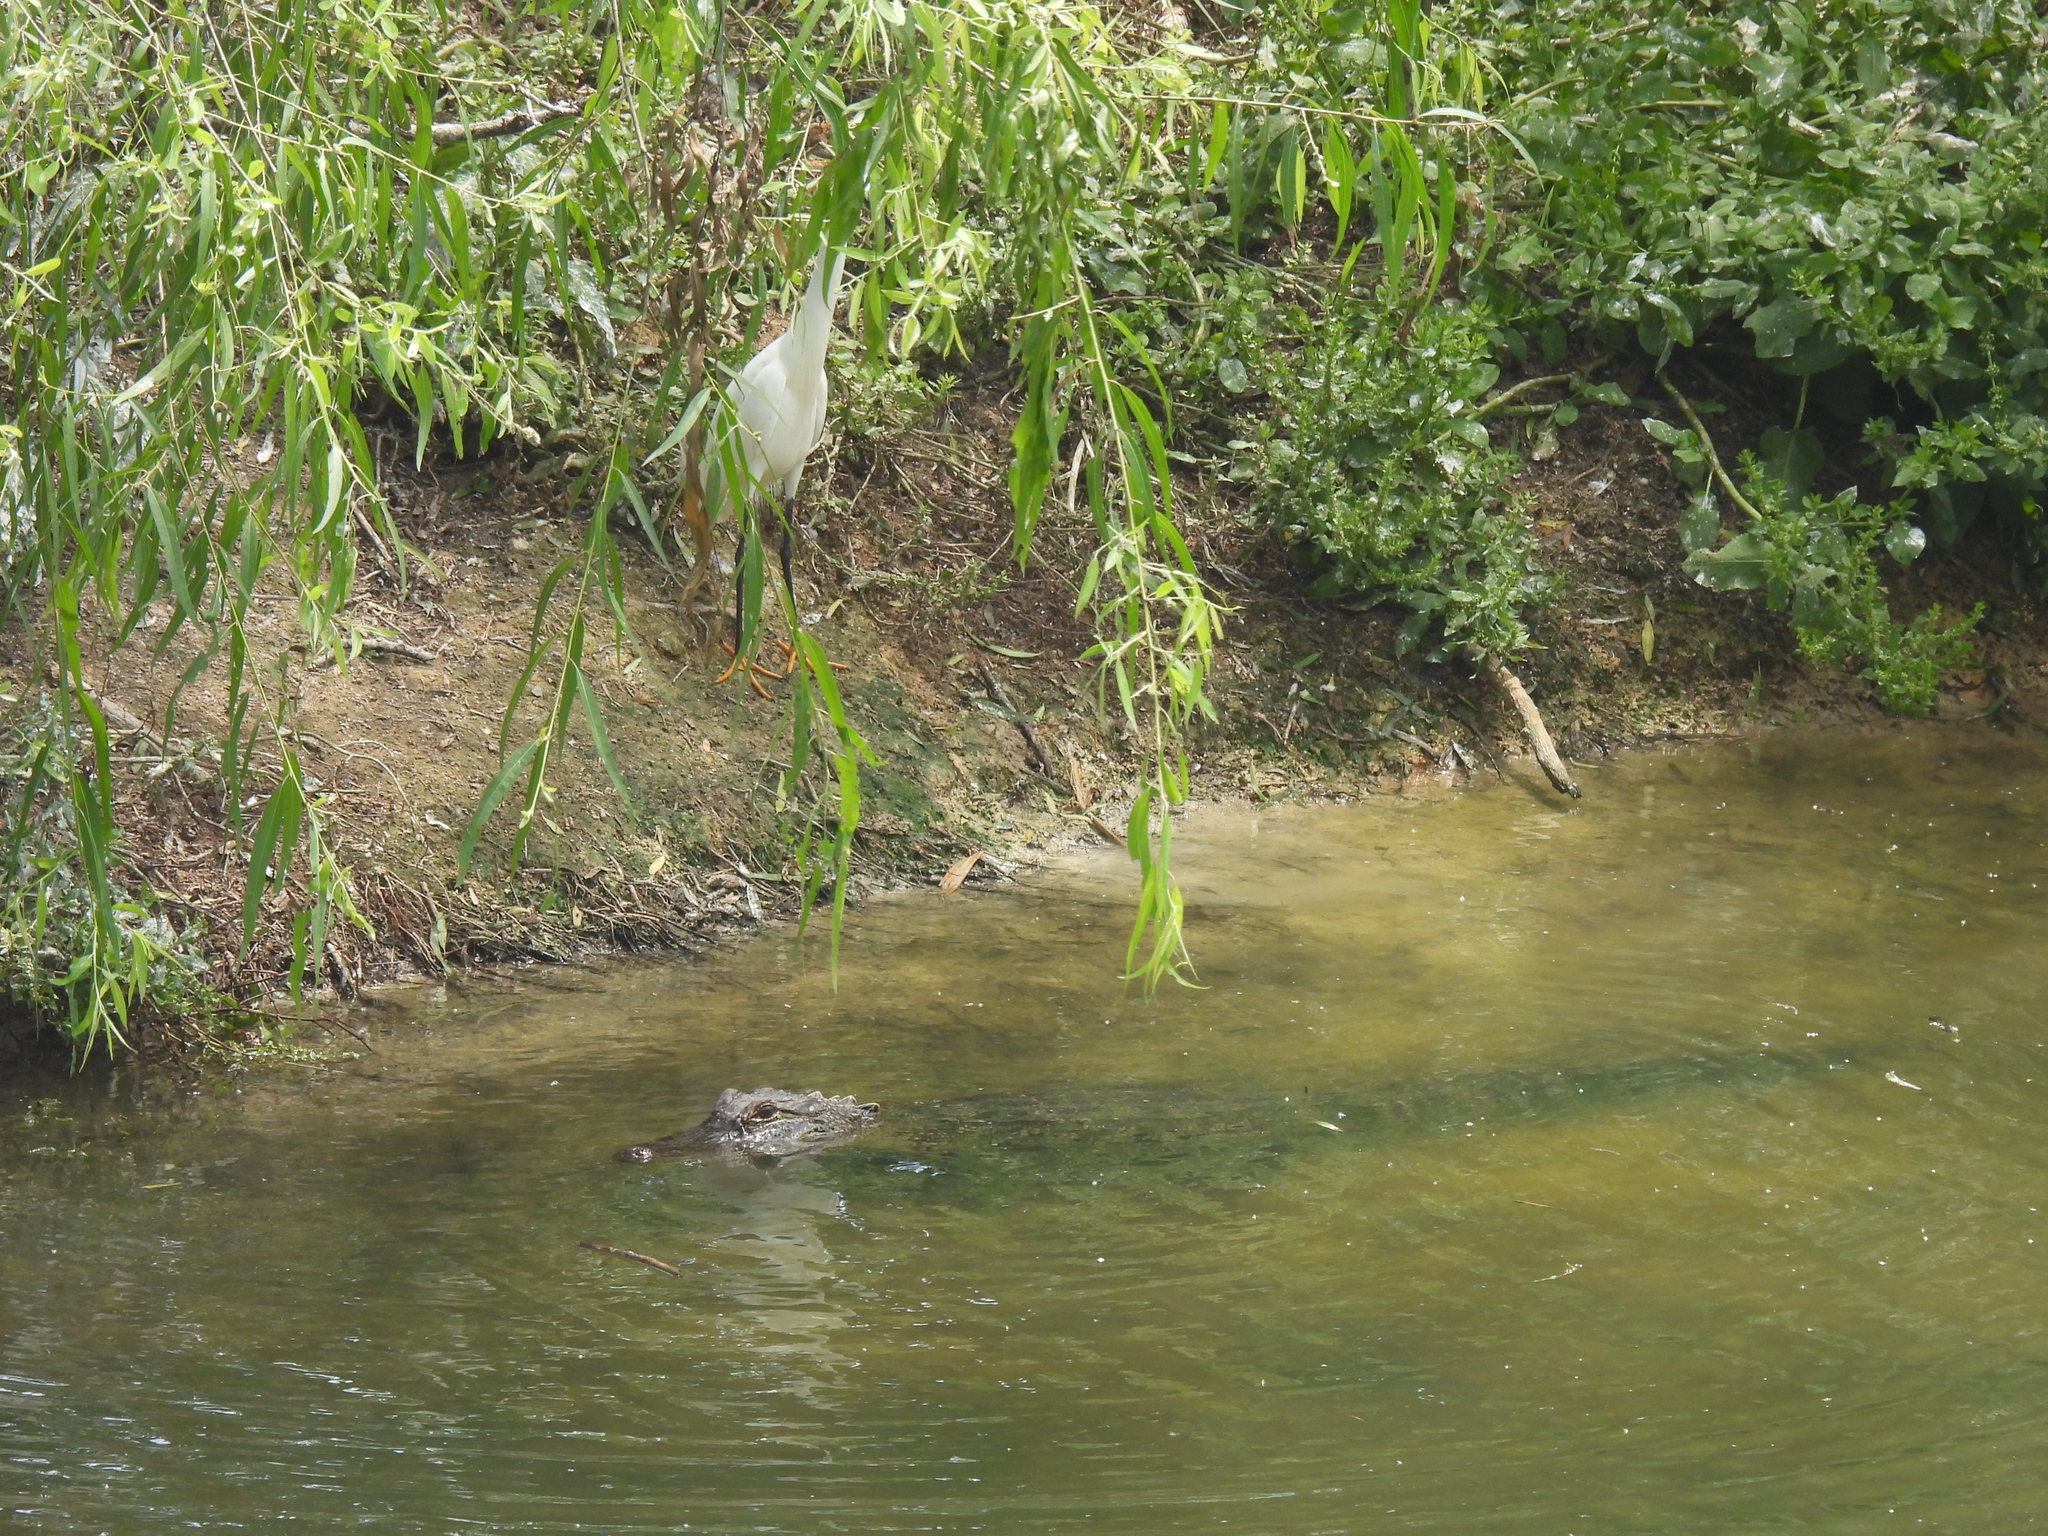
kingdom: Animalia
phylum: Chordata
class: Crocodylia
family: Alligatoridae
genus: Alligator
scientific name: Alligator mississippiensis
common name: American alligator
